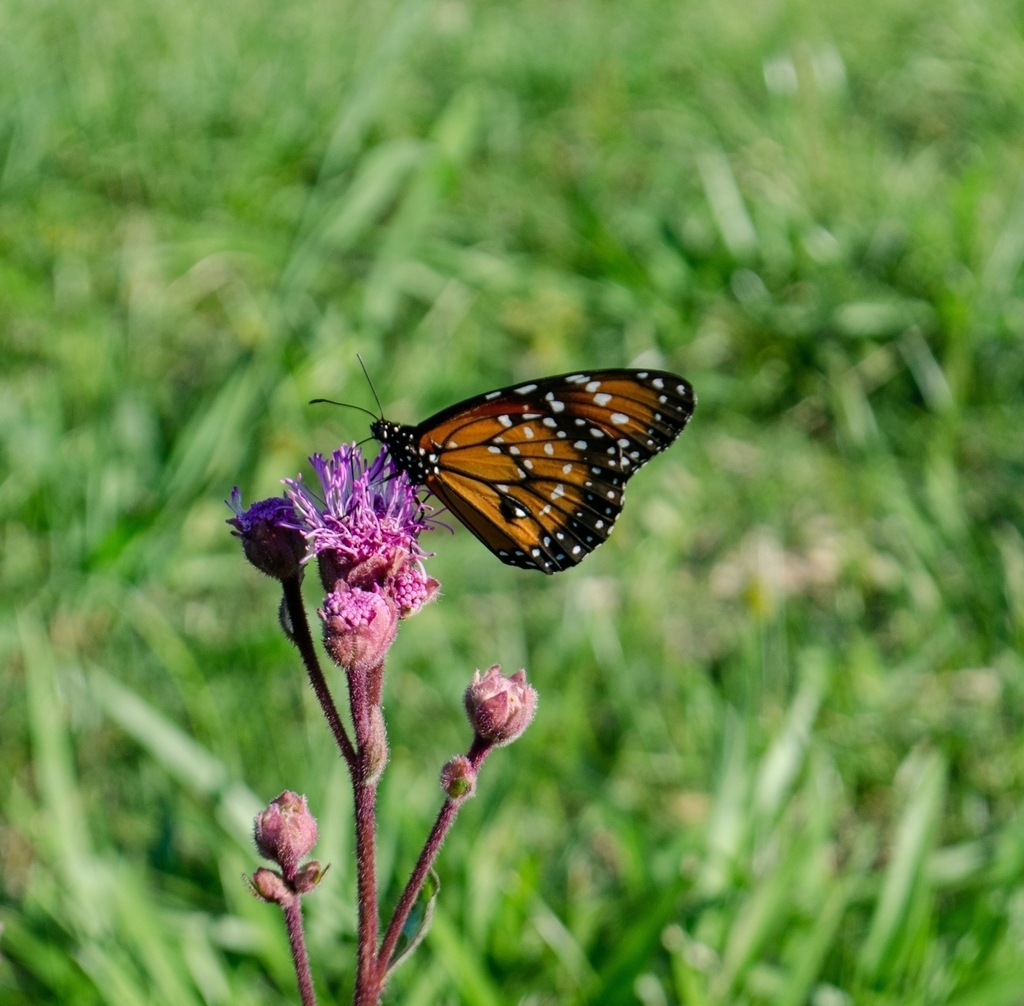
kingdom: Plantae
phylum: Tracheophyta
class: Magnoliopsida
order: Asterales
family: Asteraceae
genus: Campuloclinium
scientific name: Campuloclinium macrocephalum
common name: Pompomweed
